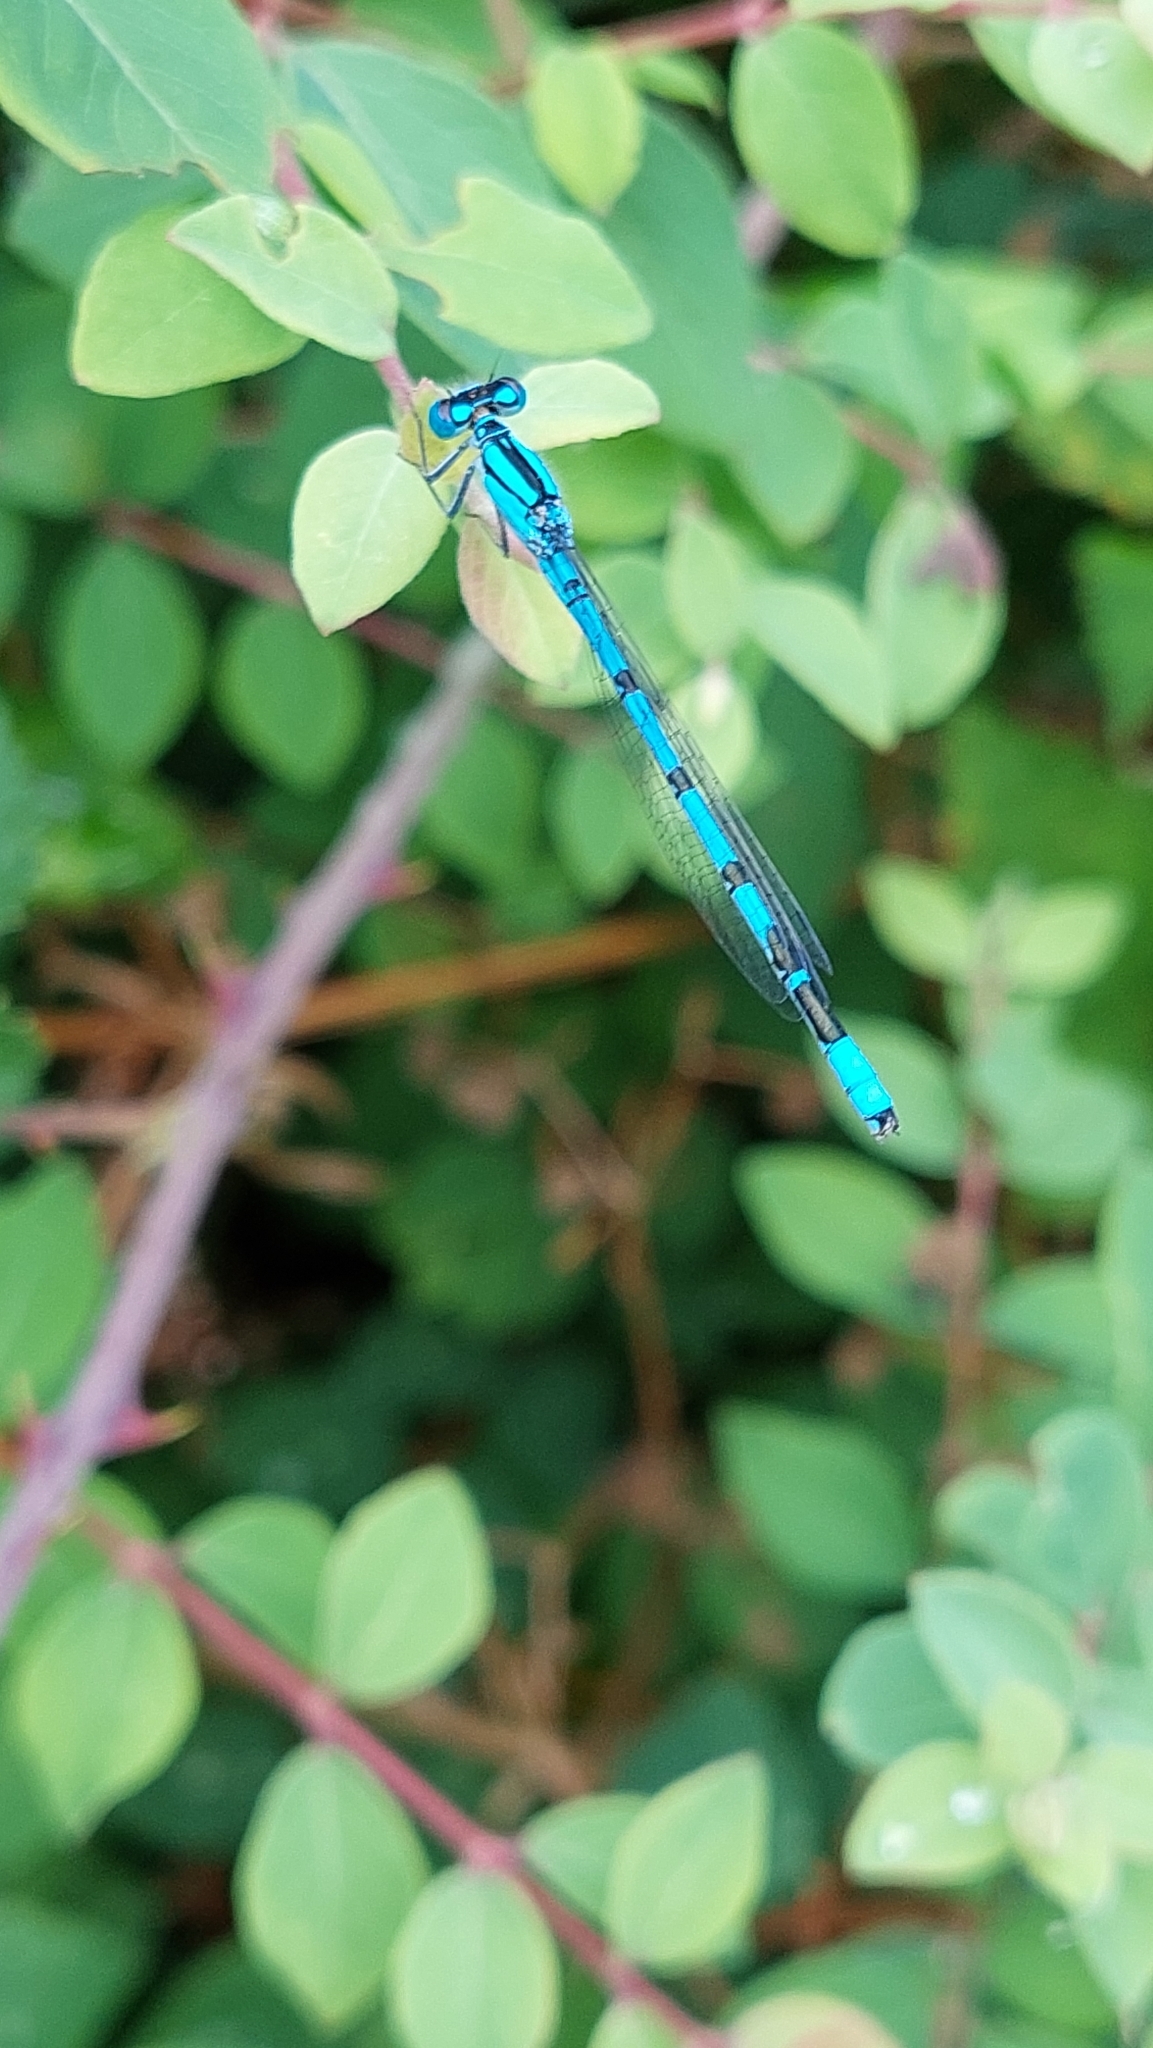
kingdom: Animalia
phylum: Arthropoda
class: Insecta
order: Odonata
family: Coenagrionidae
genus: Enallagma
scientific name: Enallagma cyathigerum
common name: Common blue damselfly
